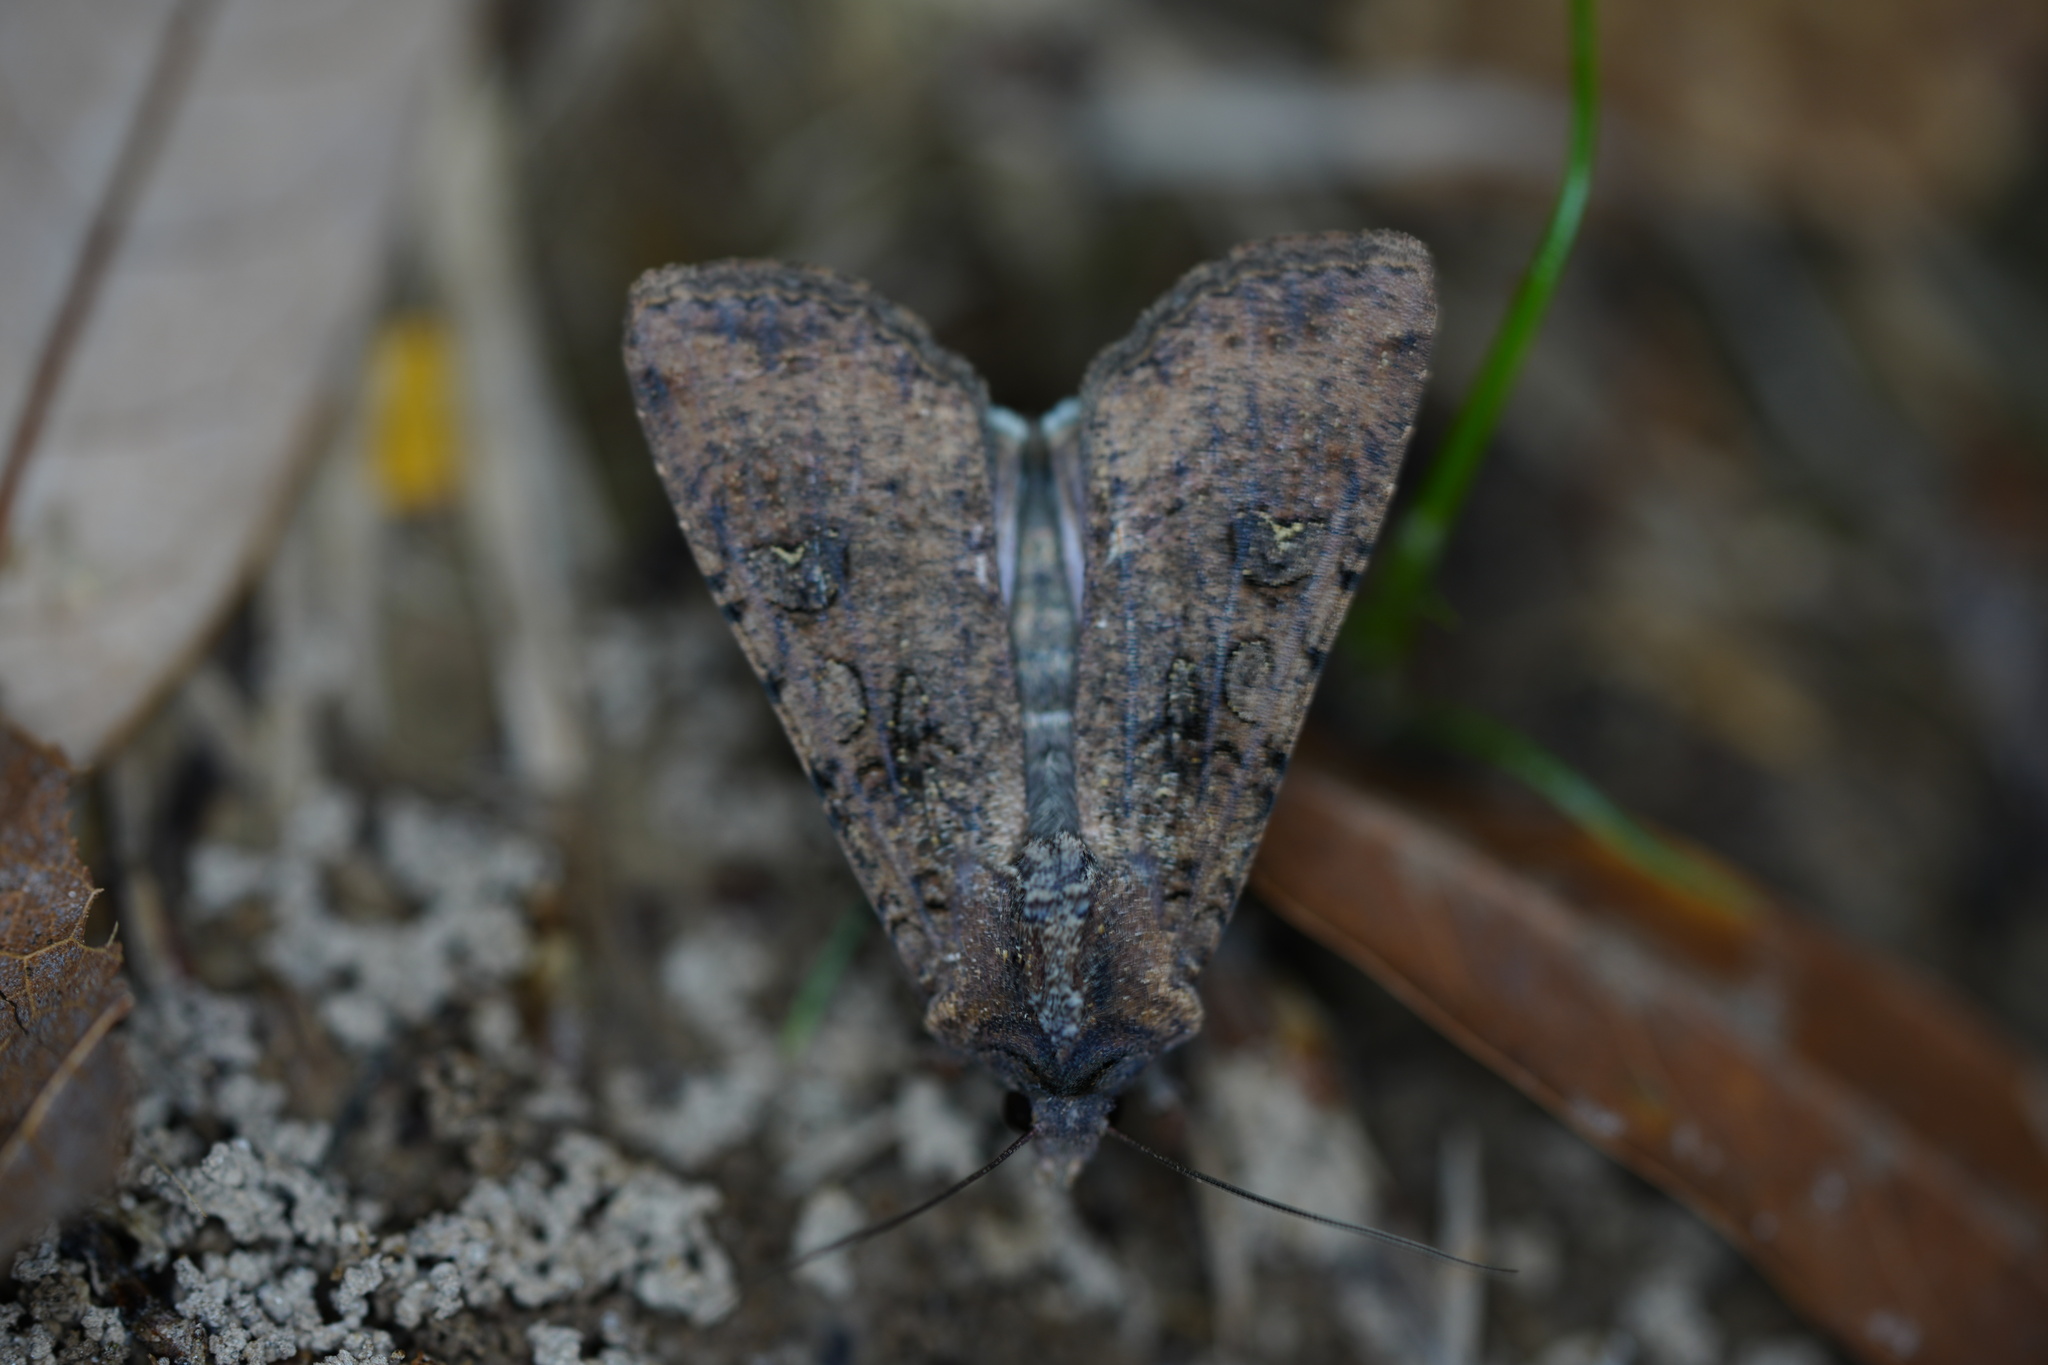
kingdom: Animalia
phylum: Arthropoda
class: Insecta
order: Lepidoptera
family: Noctuidae
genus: Peridroma
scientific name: Peridroma saucia
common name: Pearly underwing
